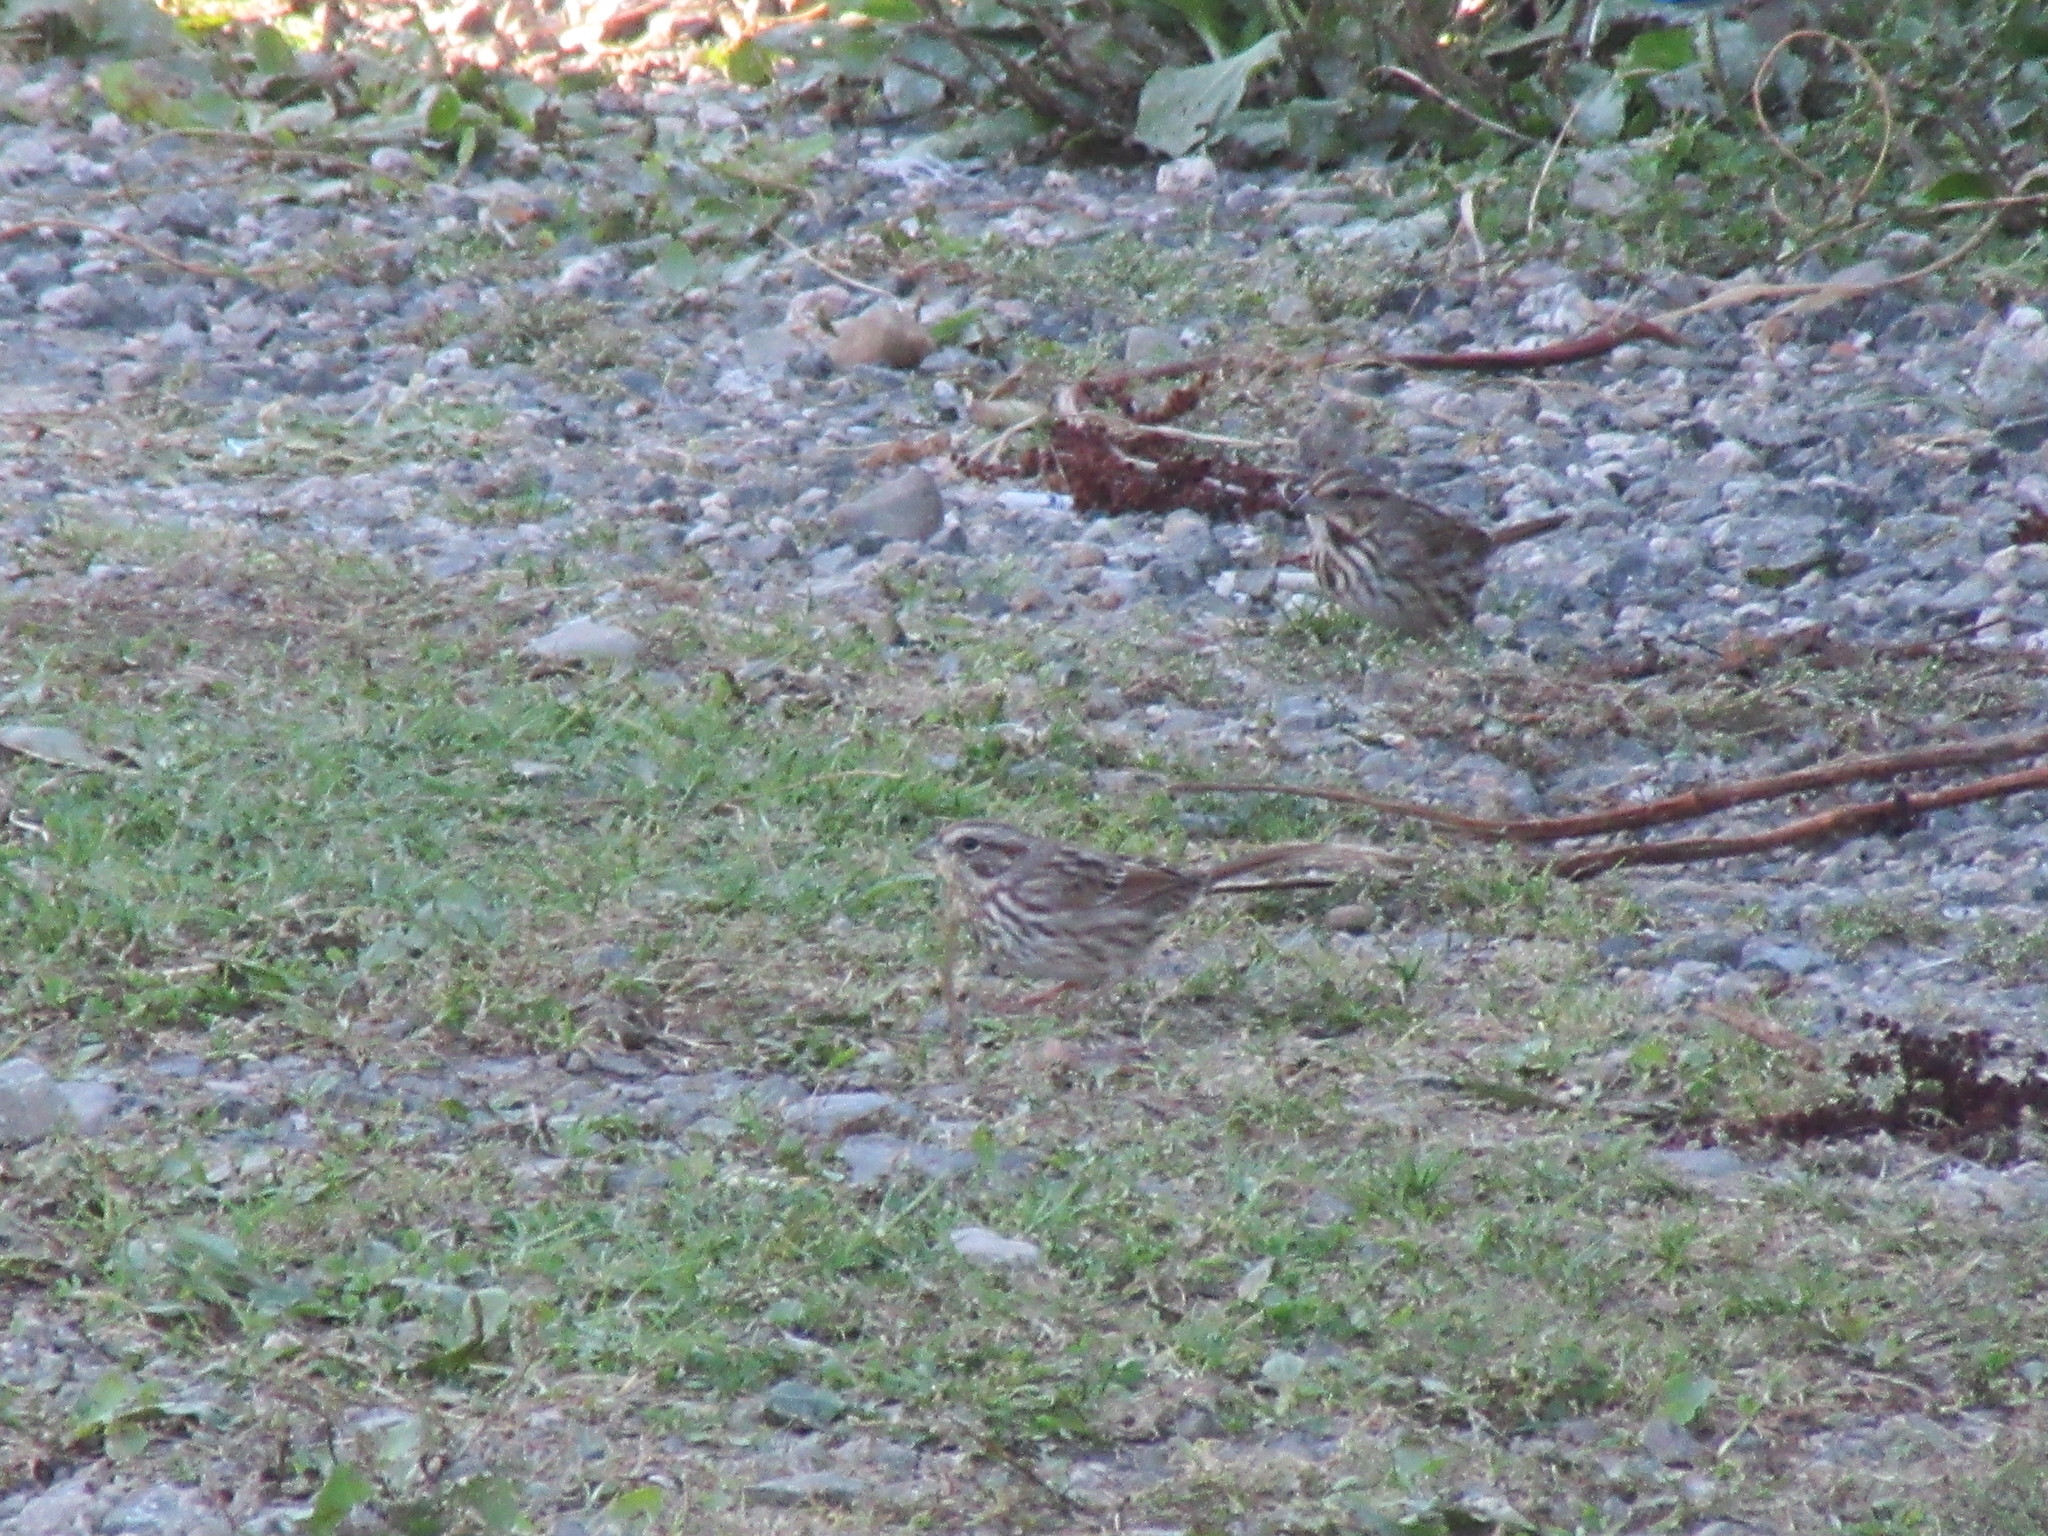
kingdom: Animalia
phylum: Chordata
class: Aves
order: Passeriformes
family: Passerellidae
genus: Melospiza
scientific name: Melospiza melodia
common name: Song sparrow
